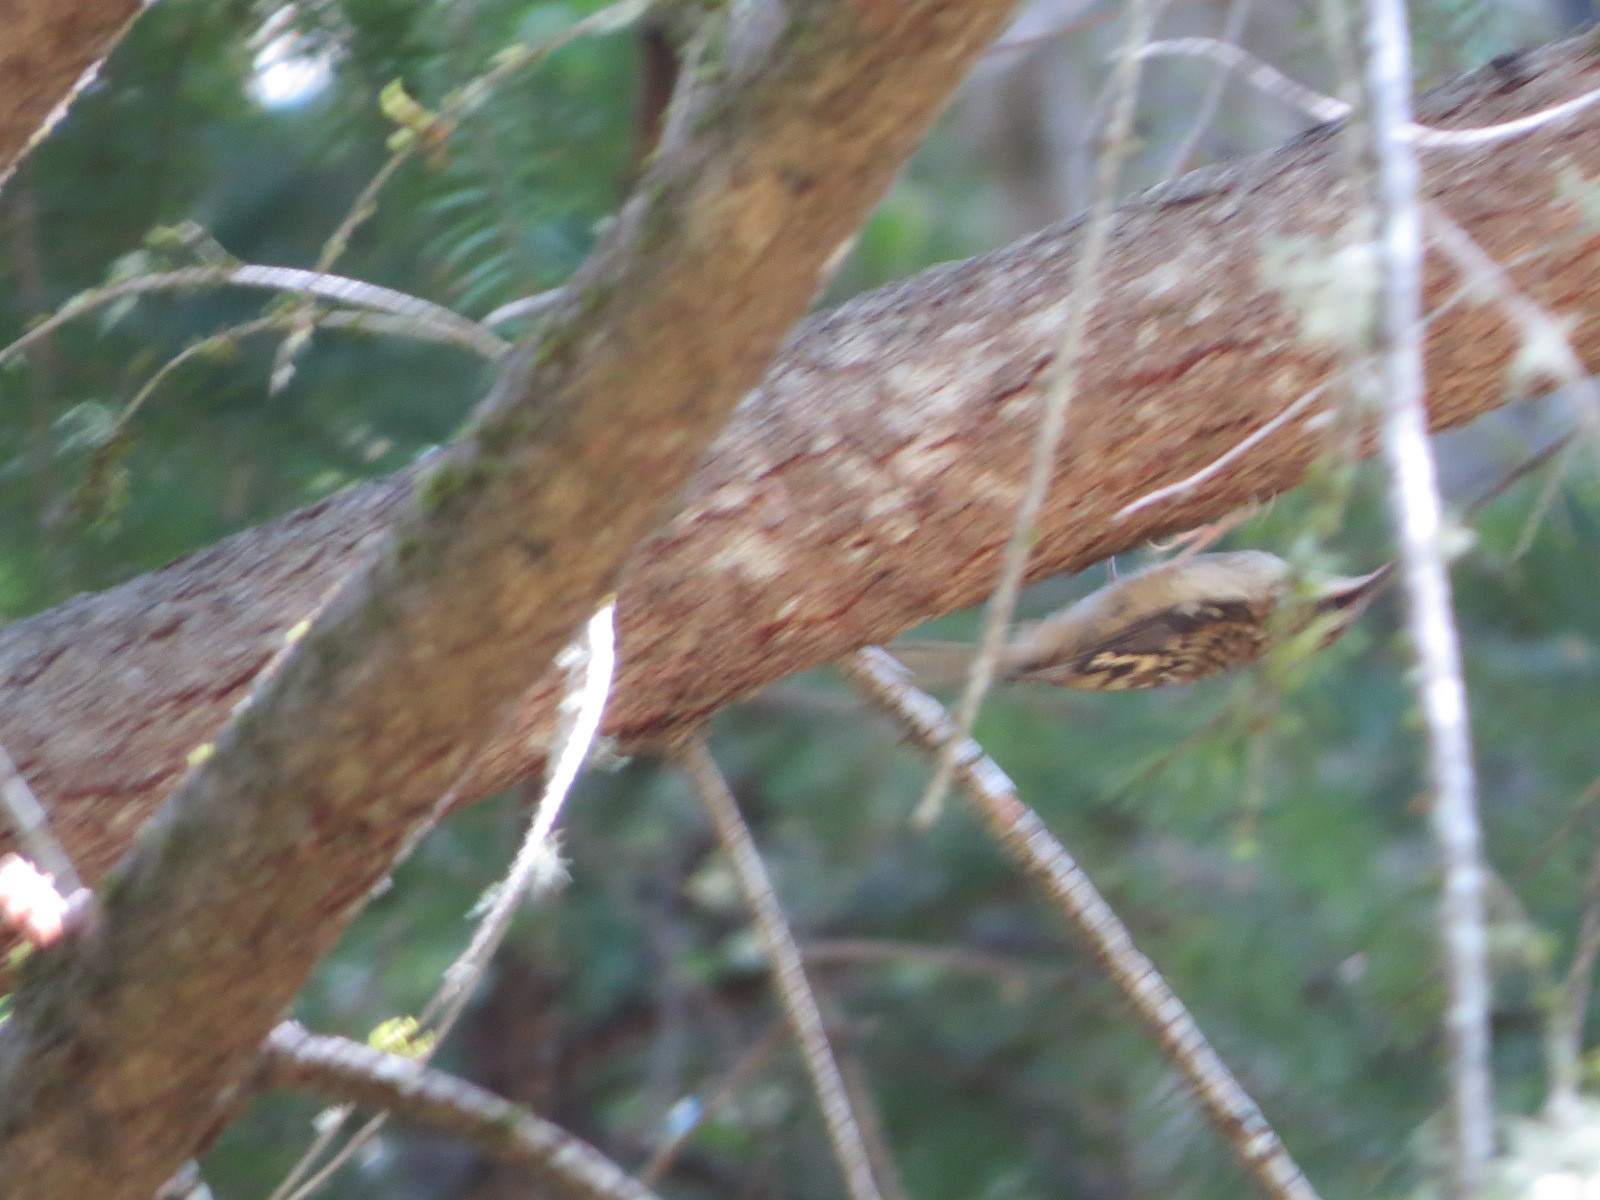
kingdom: Animalia
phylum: Chordata
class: Aves
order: Passeriformes
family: Certhiidae
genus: Certhia
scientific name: Certhia americana
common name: Brown creeper
